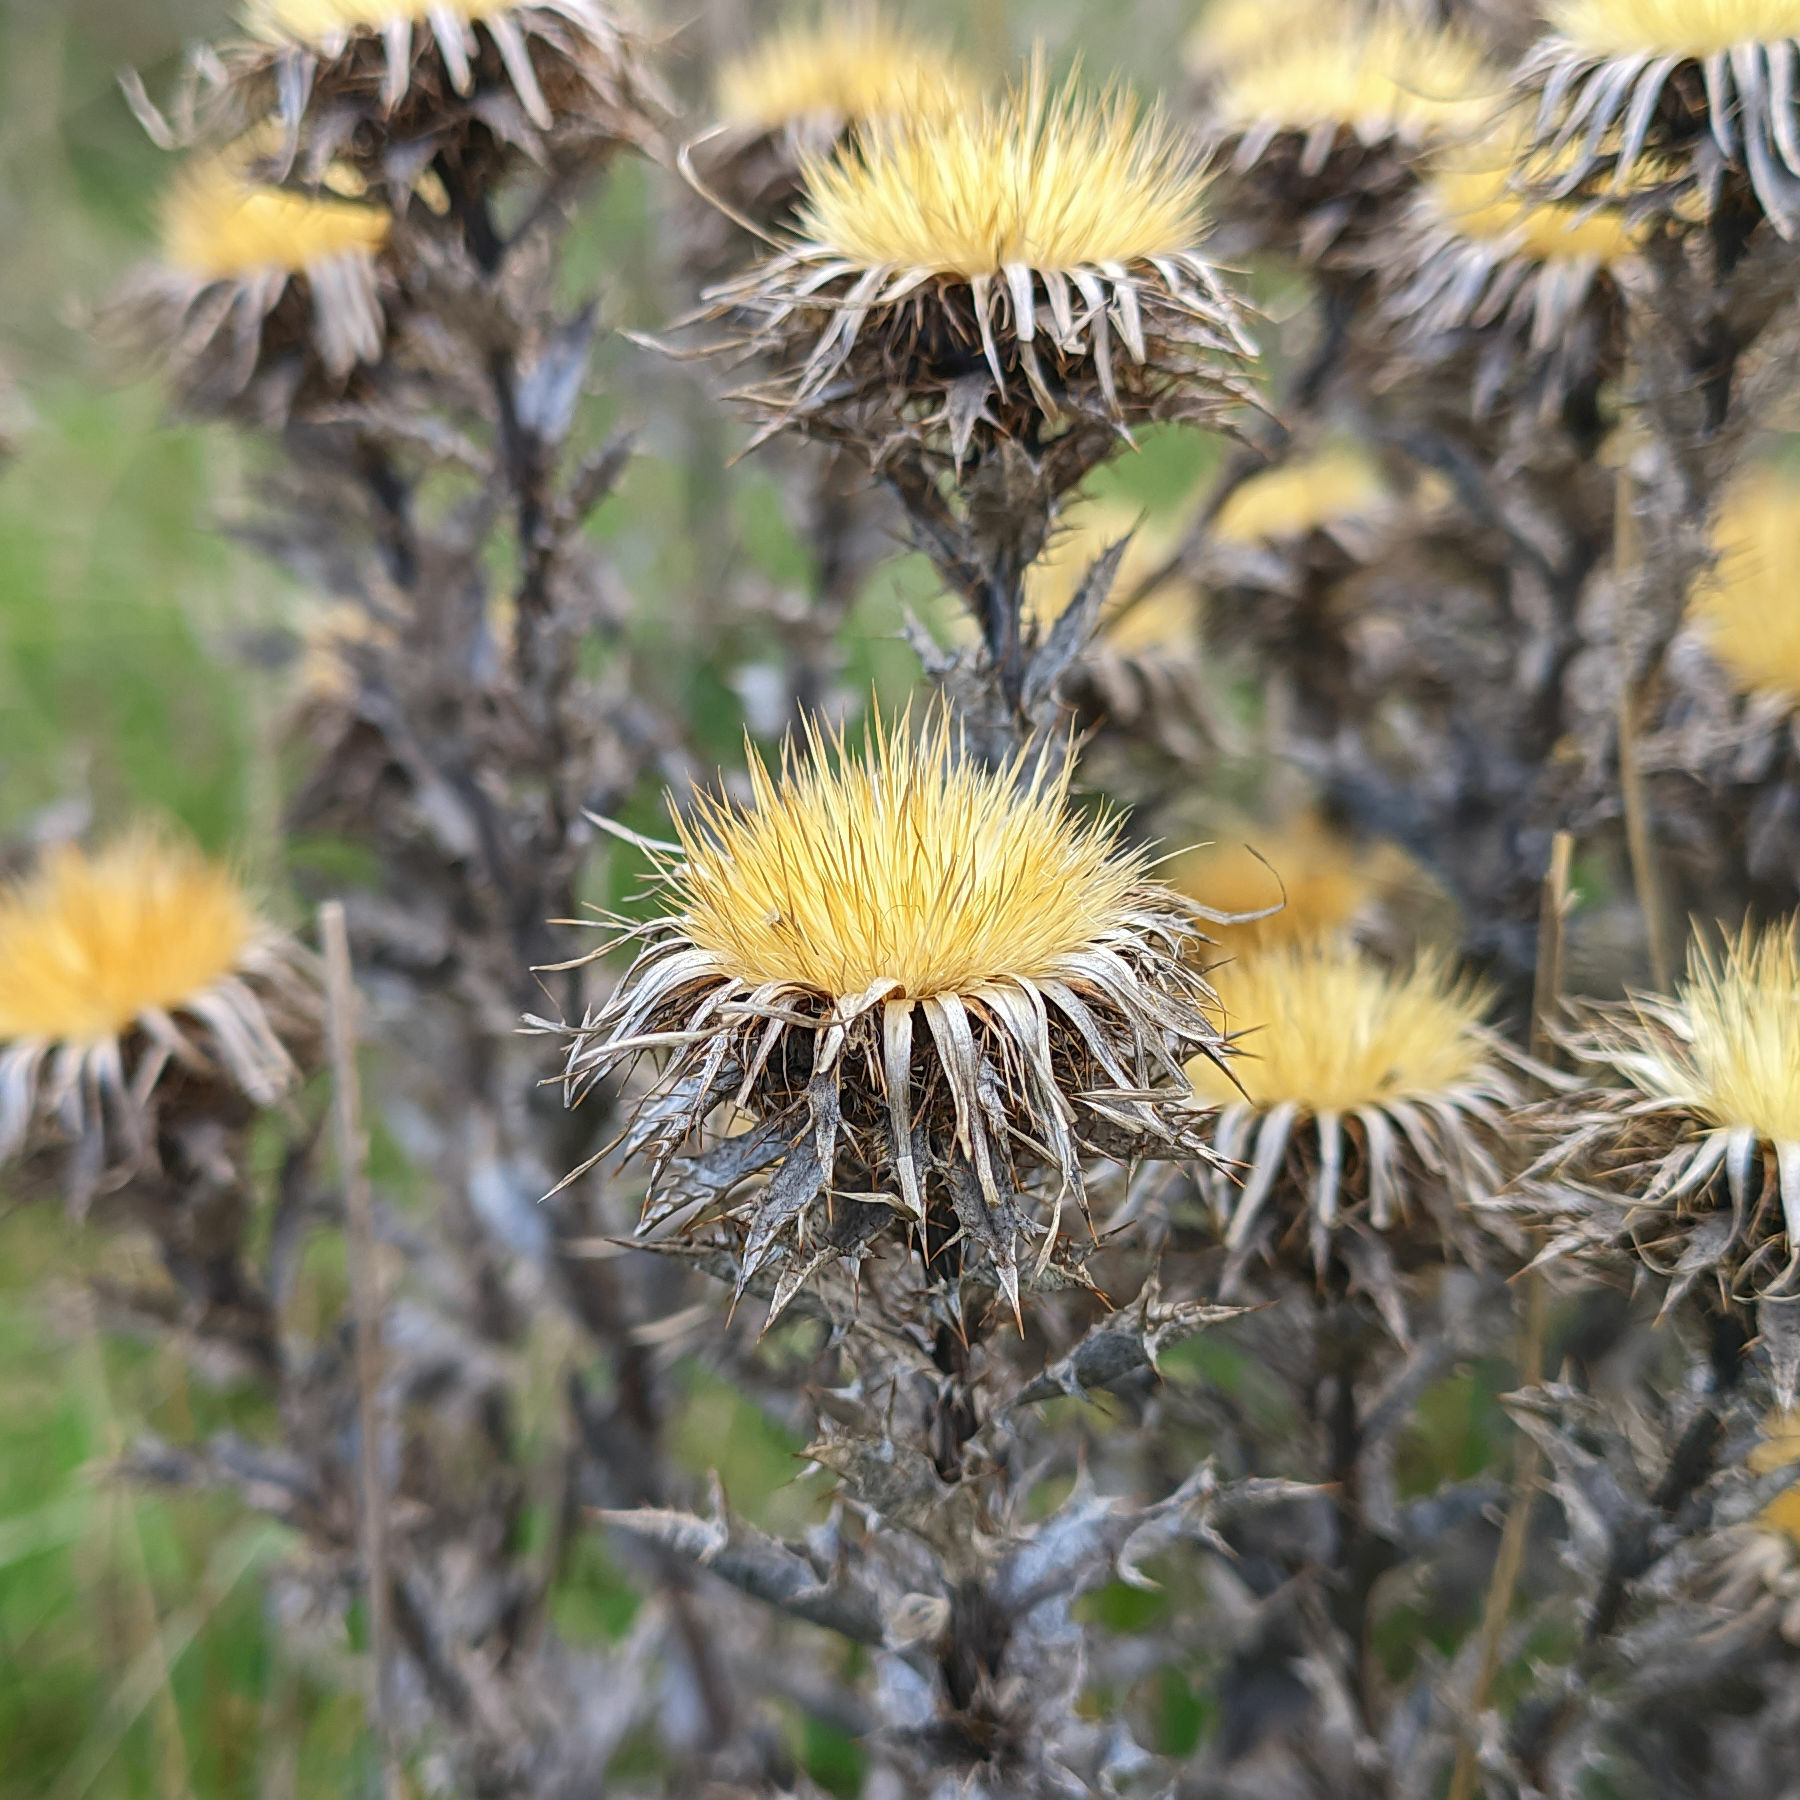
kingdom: Plantae
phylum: Tracheophyta
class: Magnoliopsida
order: Asterales
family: Asteraceae
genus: Carlina
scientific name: Carlina vulgaris
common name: Carline thistle
